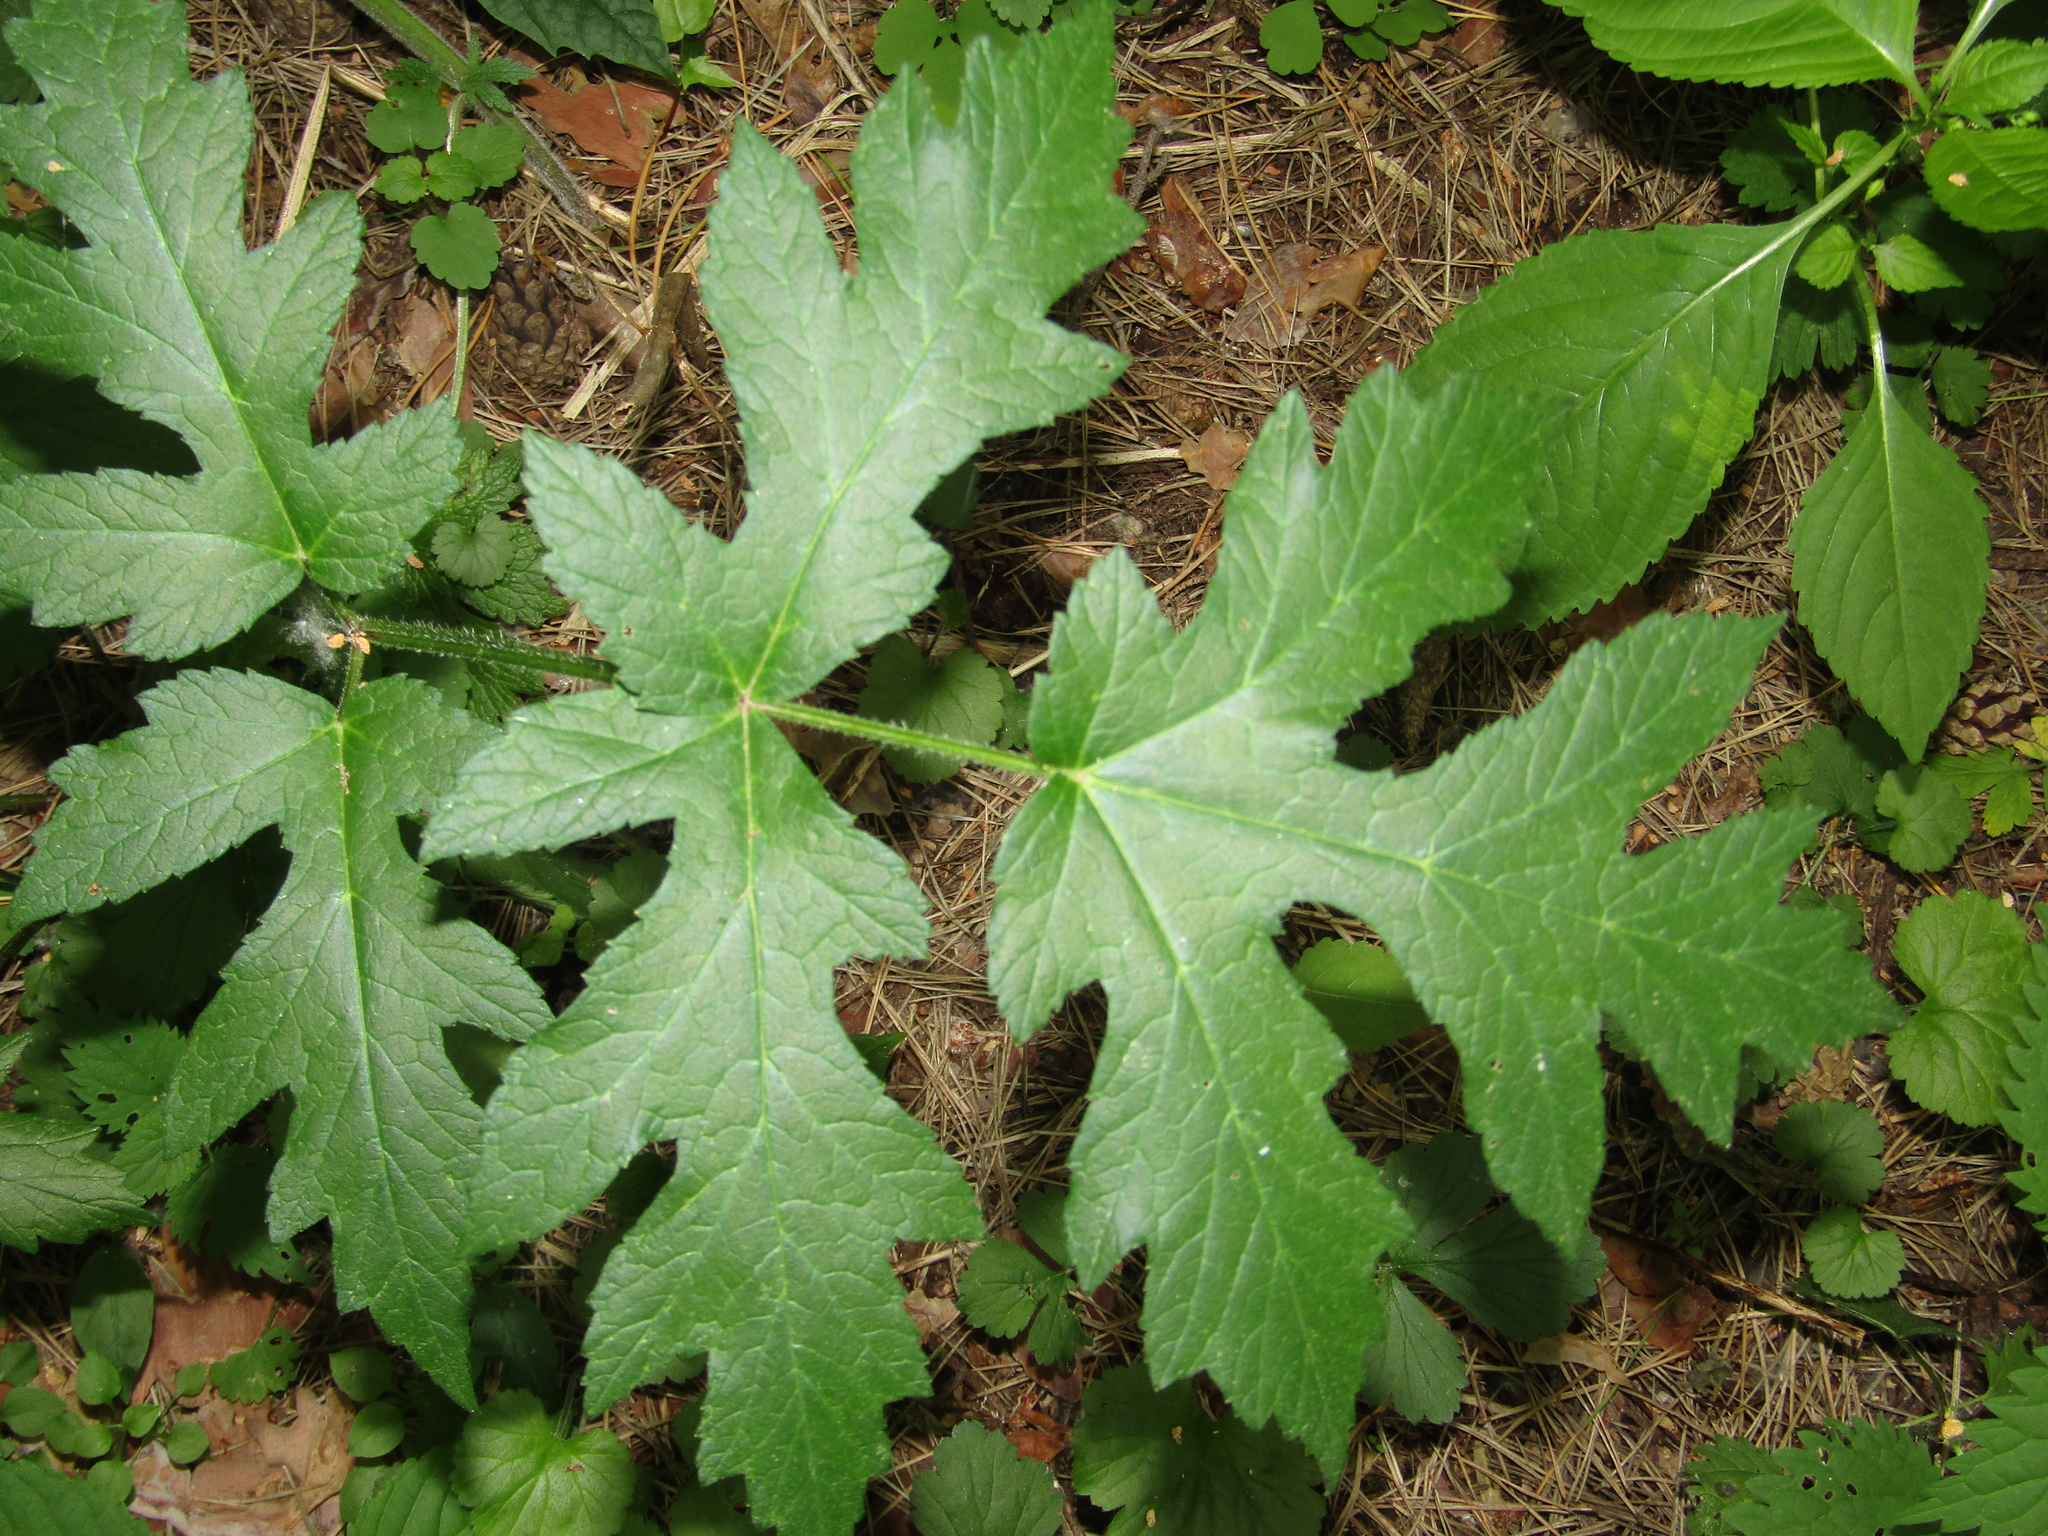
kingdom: Plantae
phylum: Tracheophyta
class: Magnoliopsida
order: Apiales
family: Apiaceae
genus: Heracleum
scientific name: Heracleum sphondylium
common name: Hogweed
